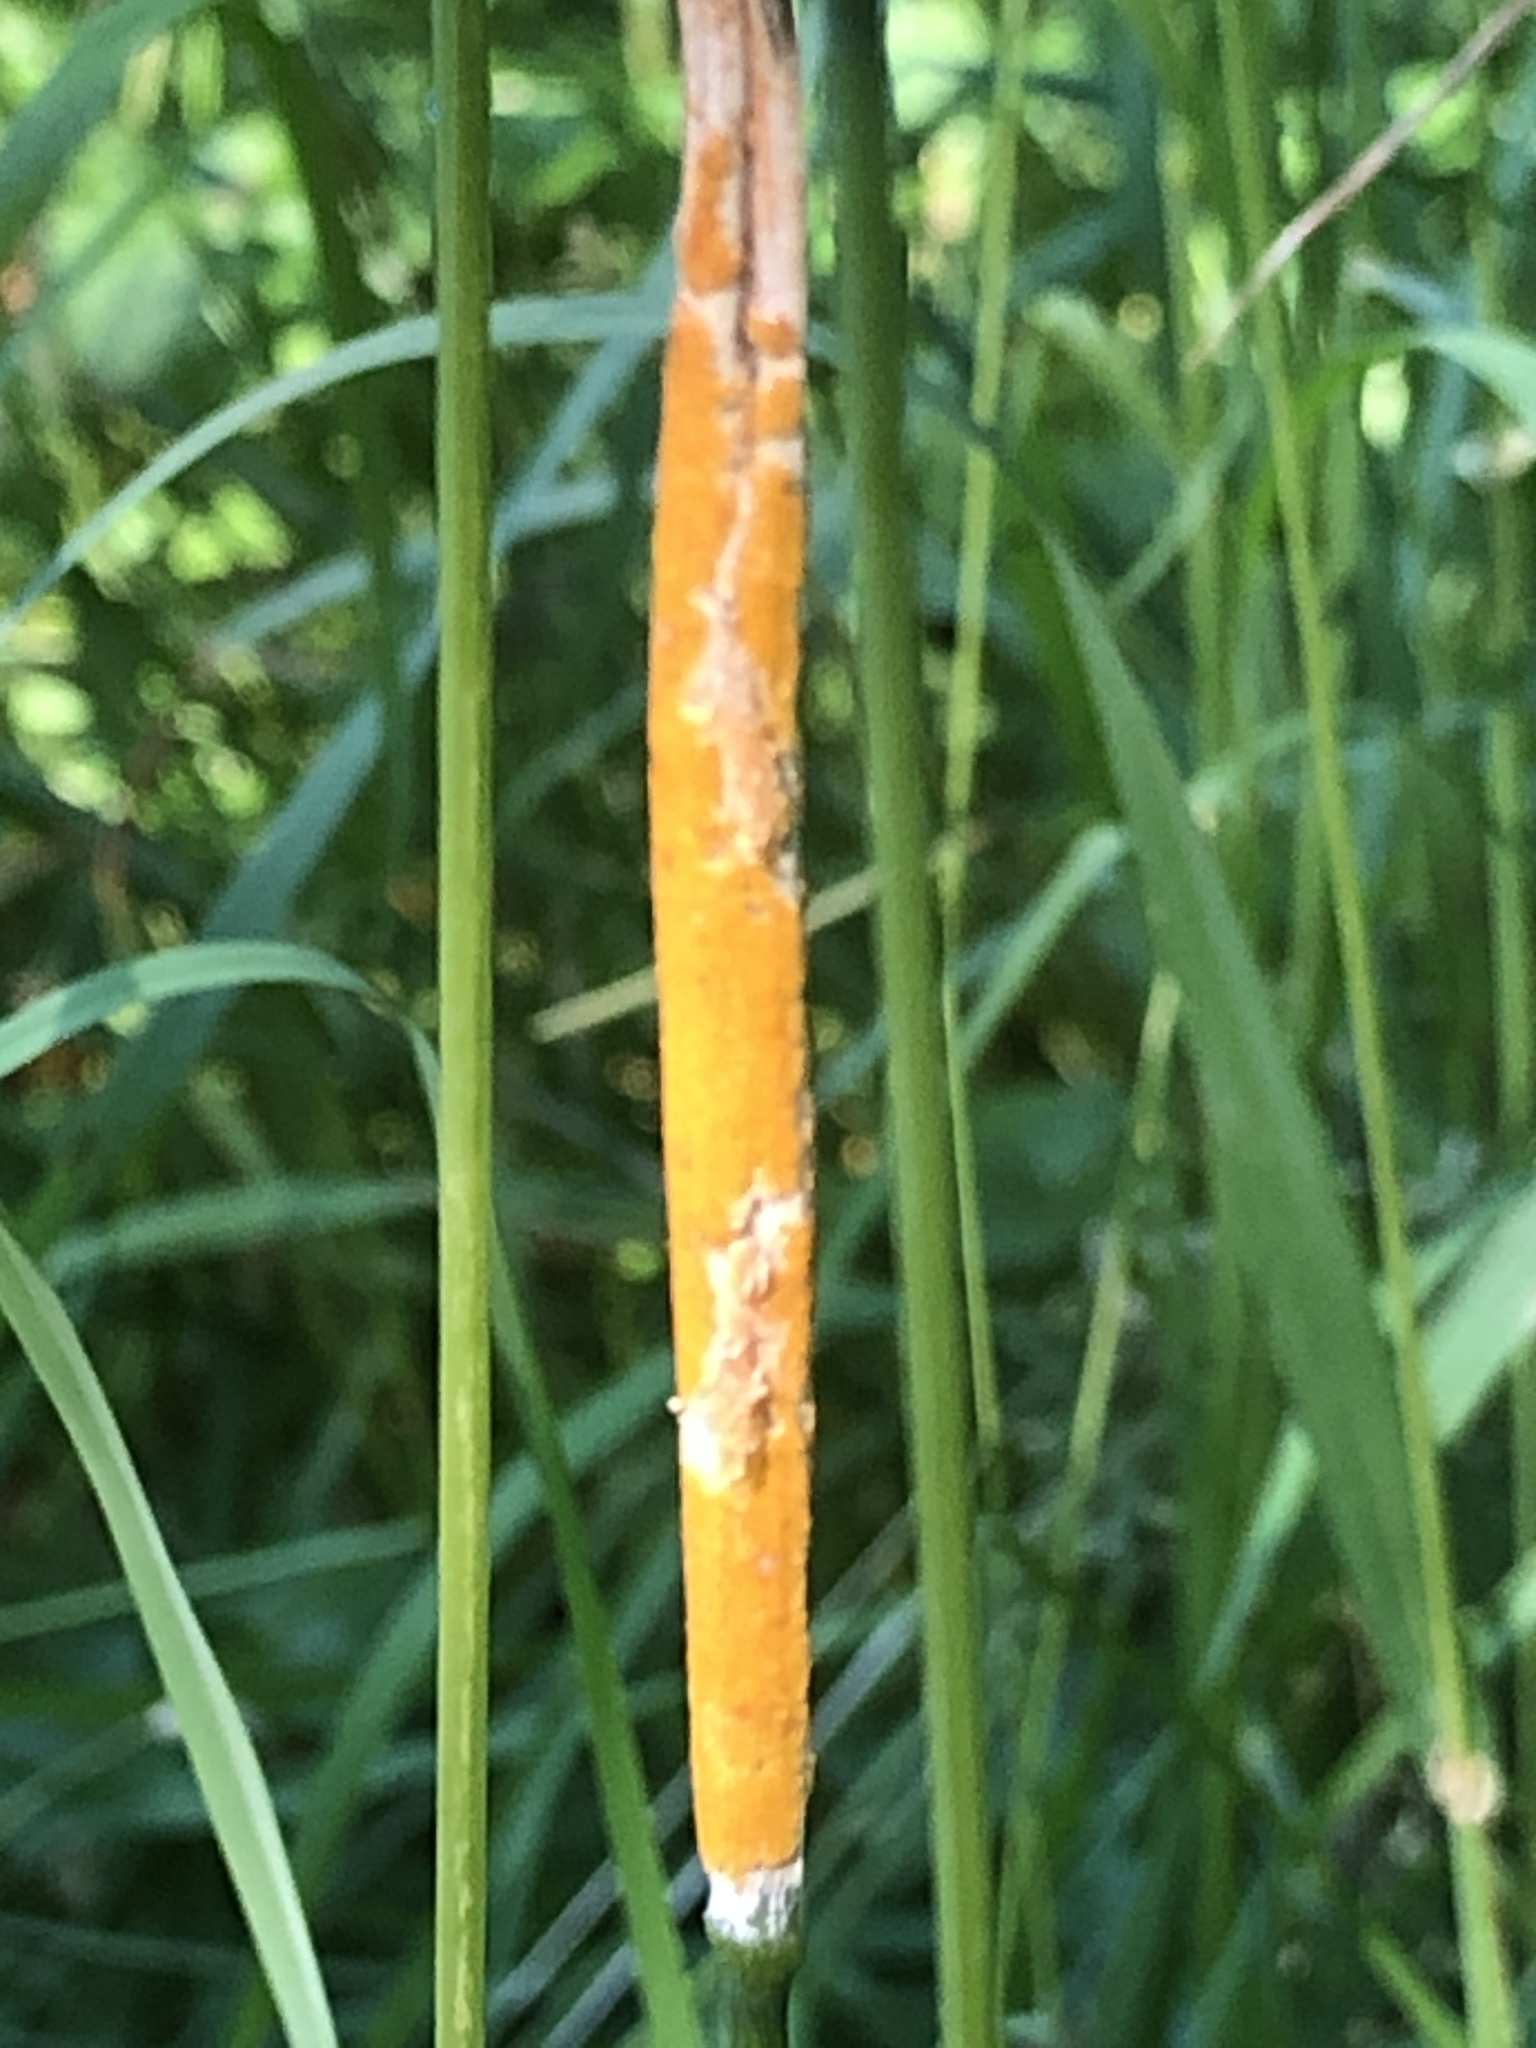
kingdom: Fungi
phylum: Ascomycota
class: Sordariomycetes
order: Hypocreales
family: Clavicipitaceae
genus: Epichloe
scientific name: Epichloe typhina
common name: Choke
